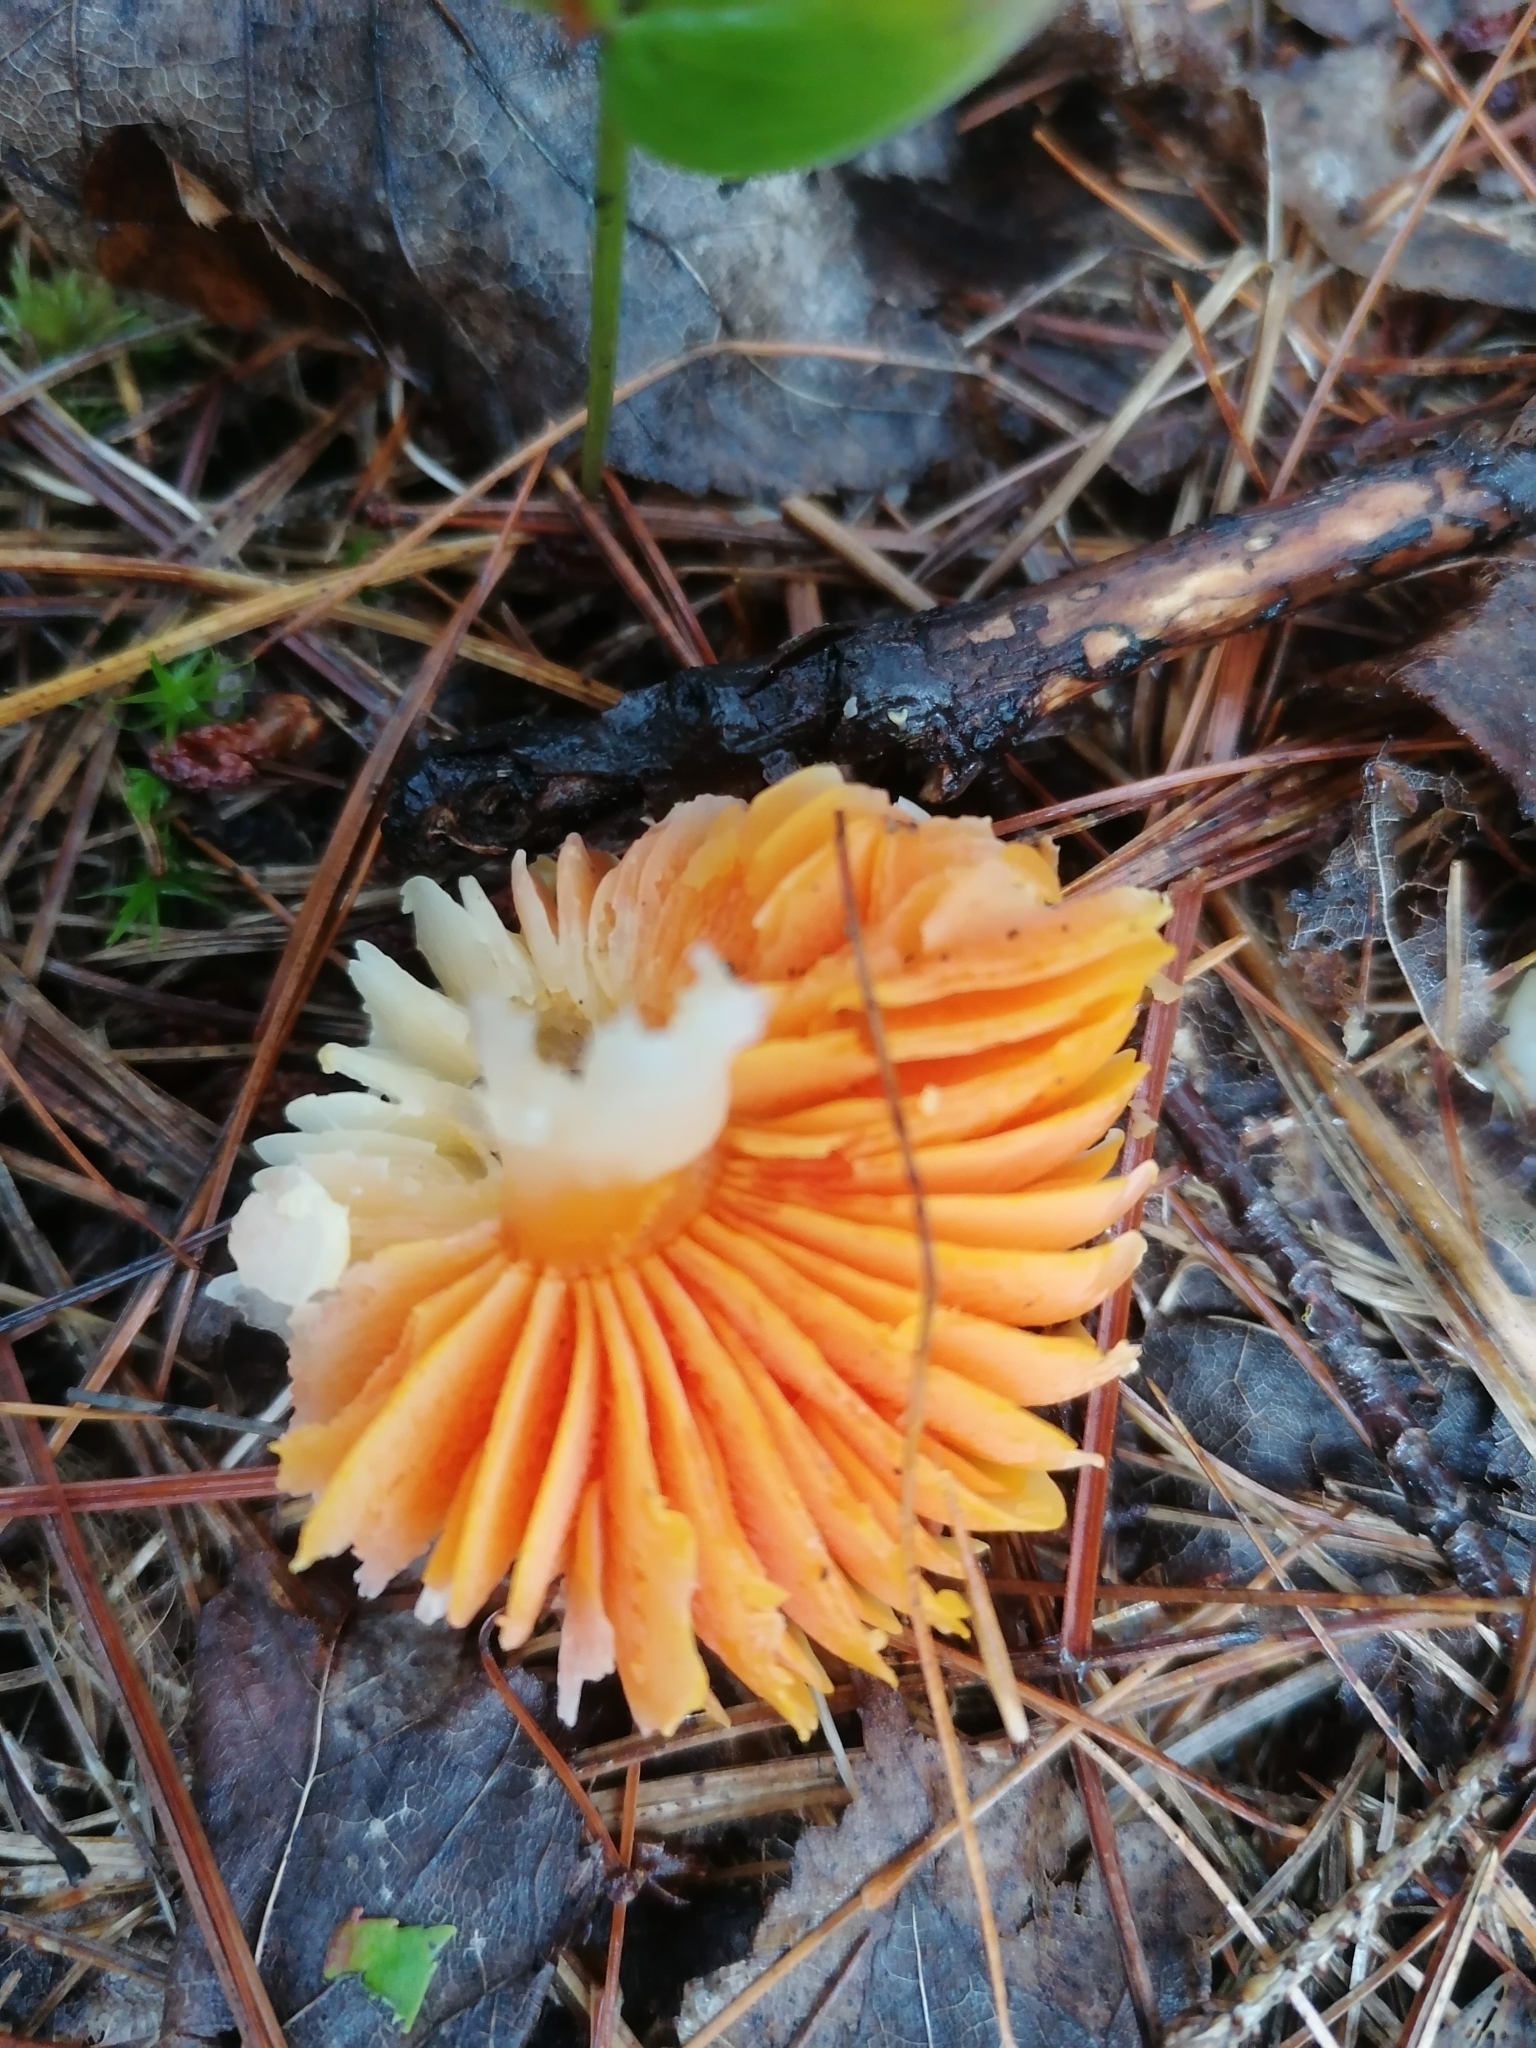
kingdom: Fungi
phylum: Basidiomycota
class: Agaricomycetes
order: Agaricales
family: Hygrophoraceae
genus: Humidicutis
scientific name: Humidicutis marginata
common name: Orange gilled waxcap
